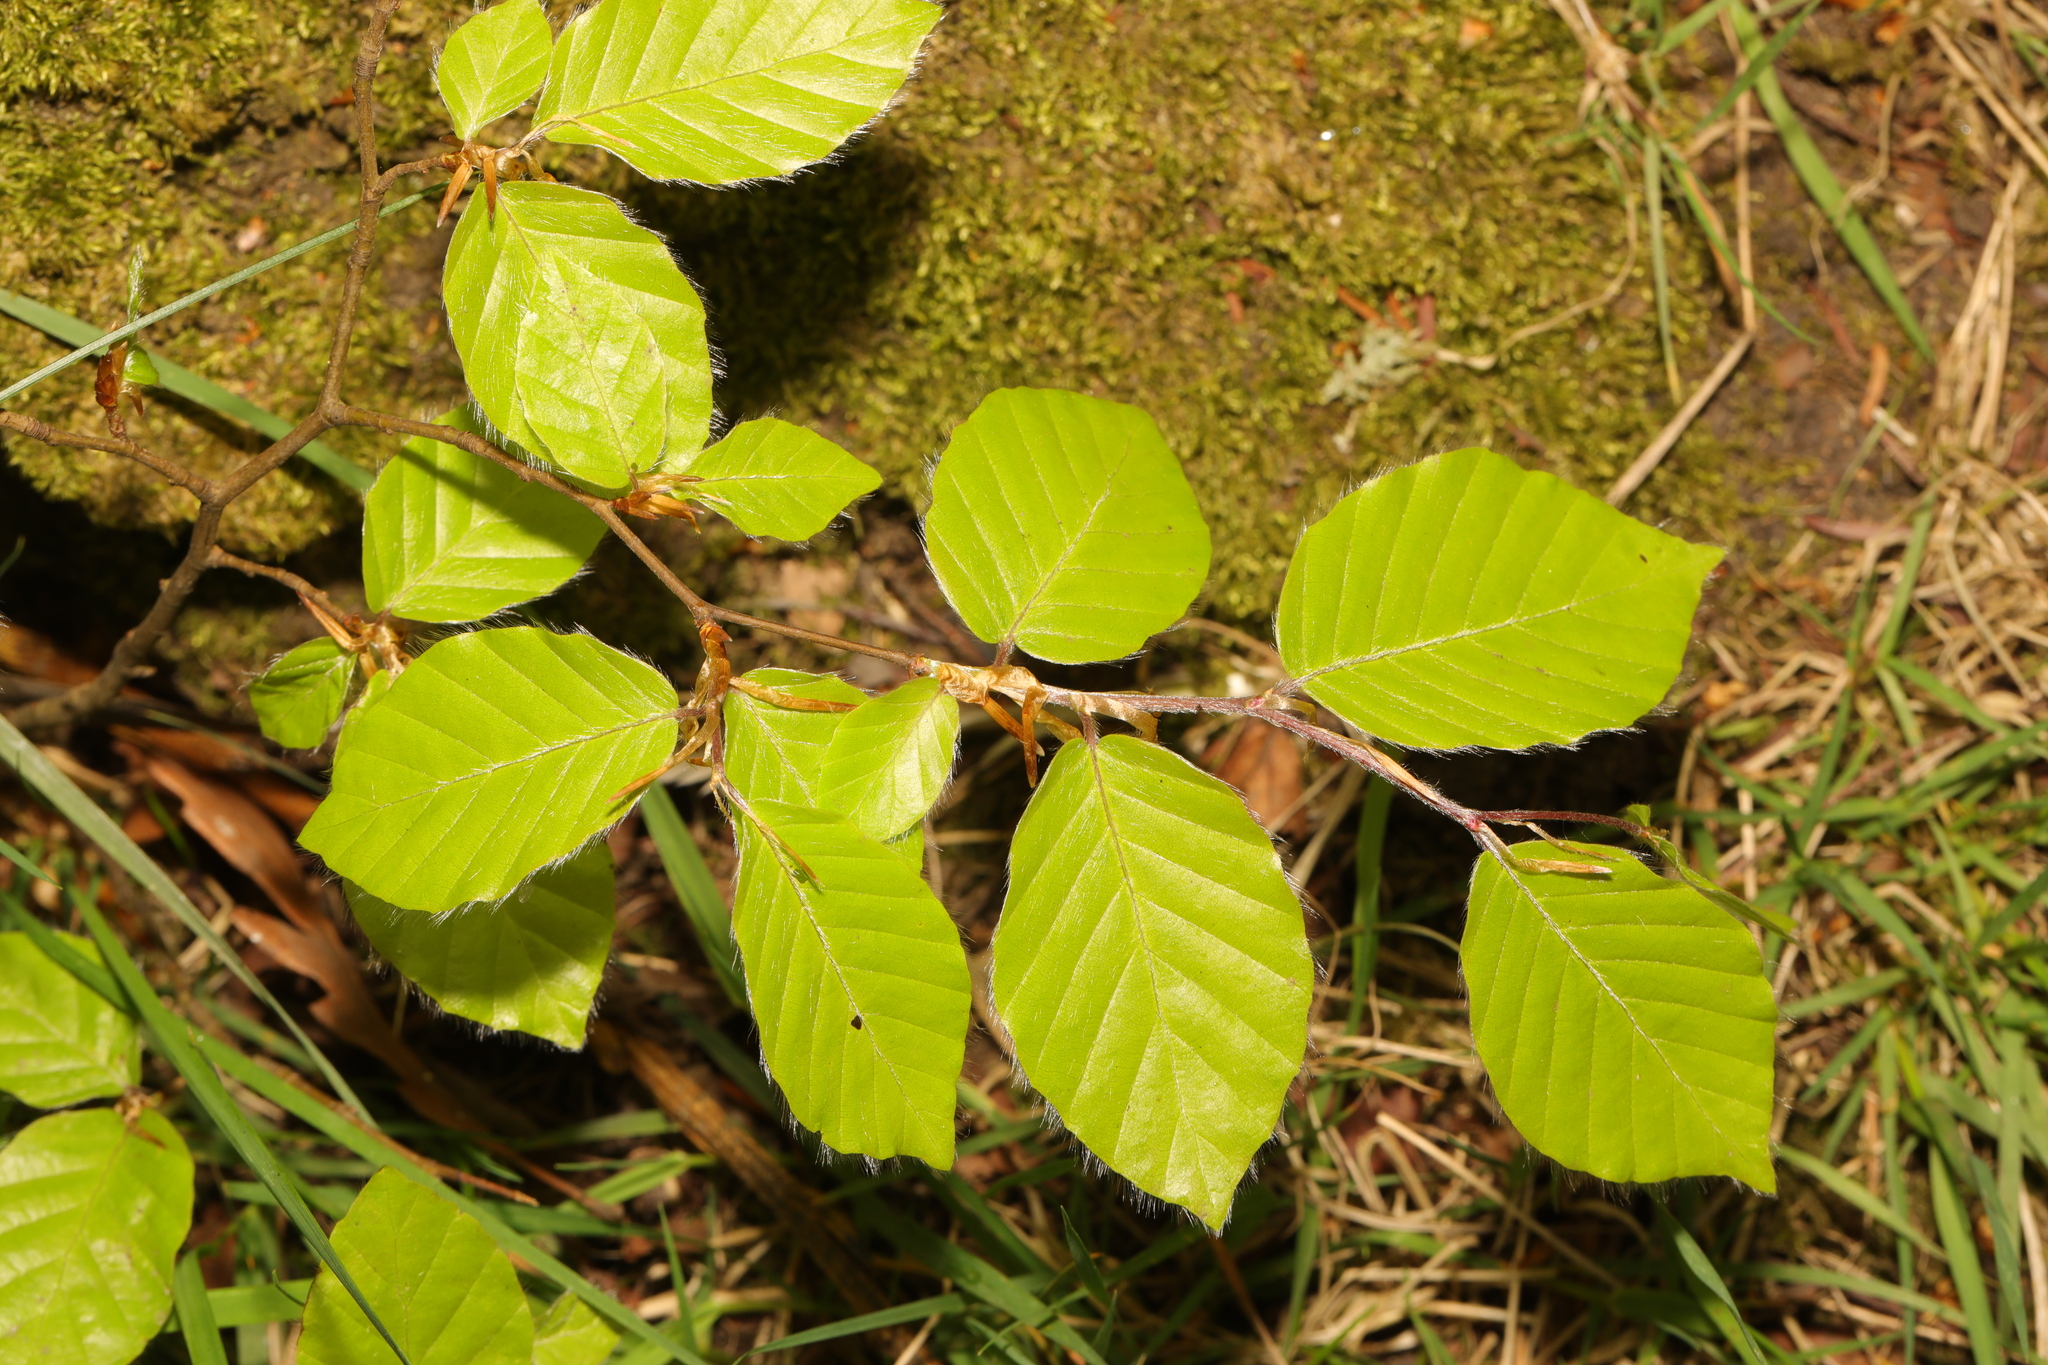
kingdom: Plantae
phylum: Tracheophyta
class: Magnoliopsida
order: Fagales
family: Fagaceae
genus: Fagus
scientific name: Fagus sylvatica
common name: Beech
